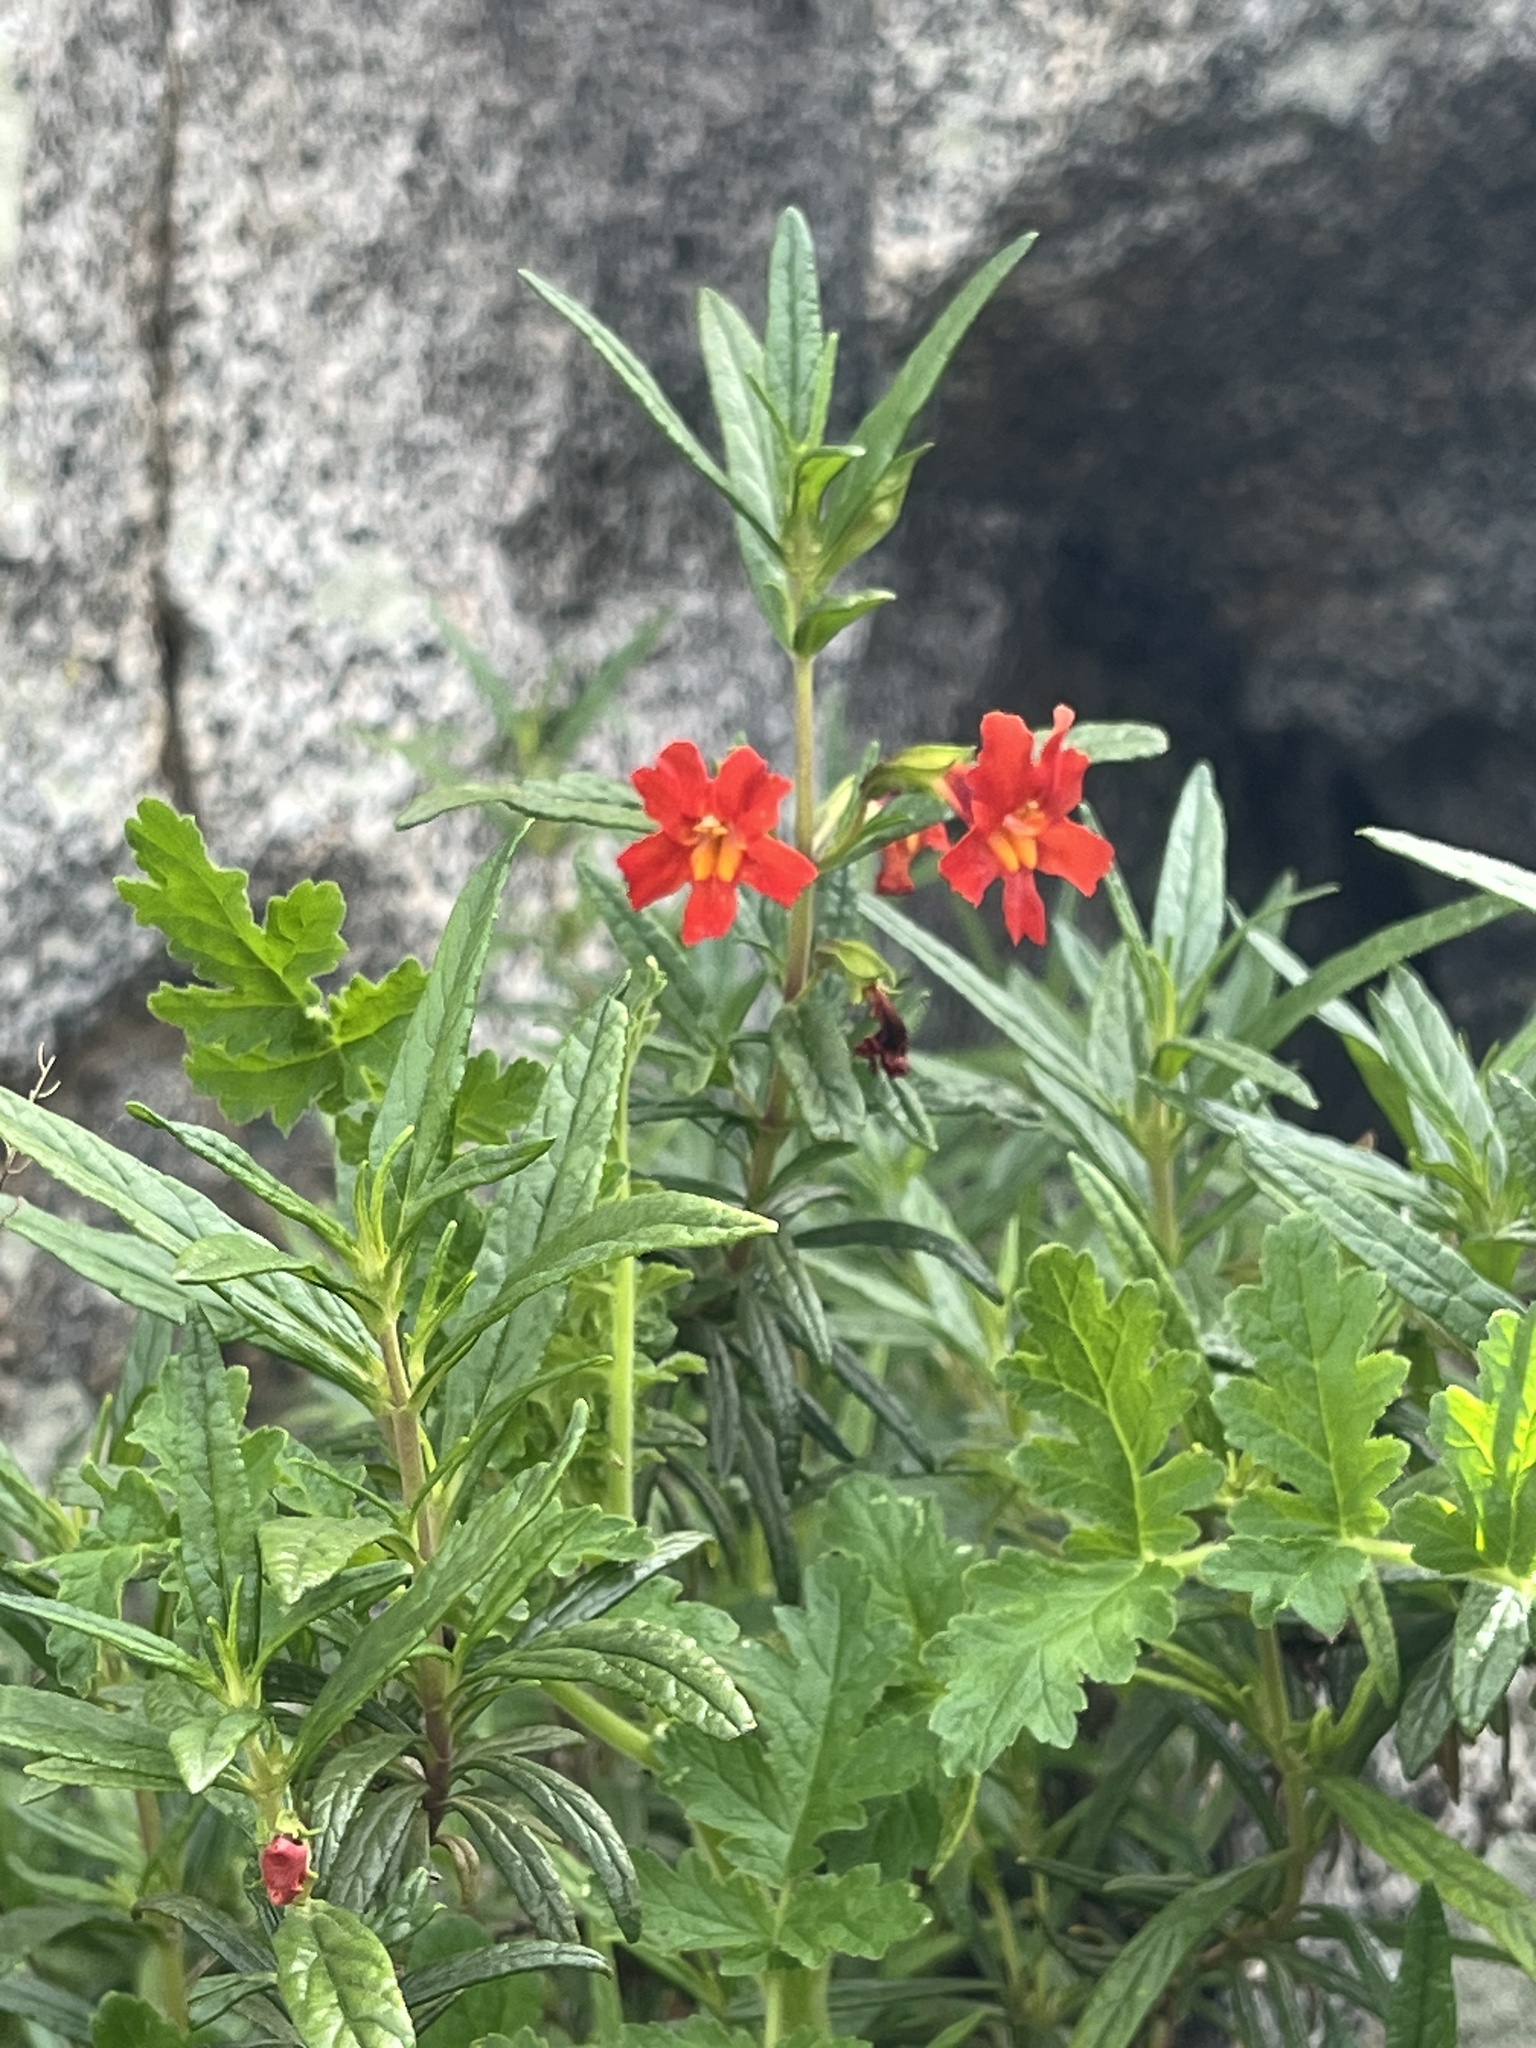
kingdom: Plantae
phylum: Tracheophyta
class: Magnoliopsida
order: Lamiales
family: Phrymaceae
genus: Diplacus
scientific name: Diplacus puniceus
